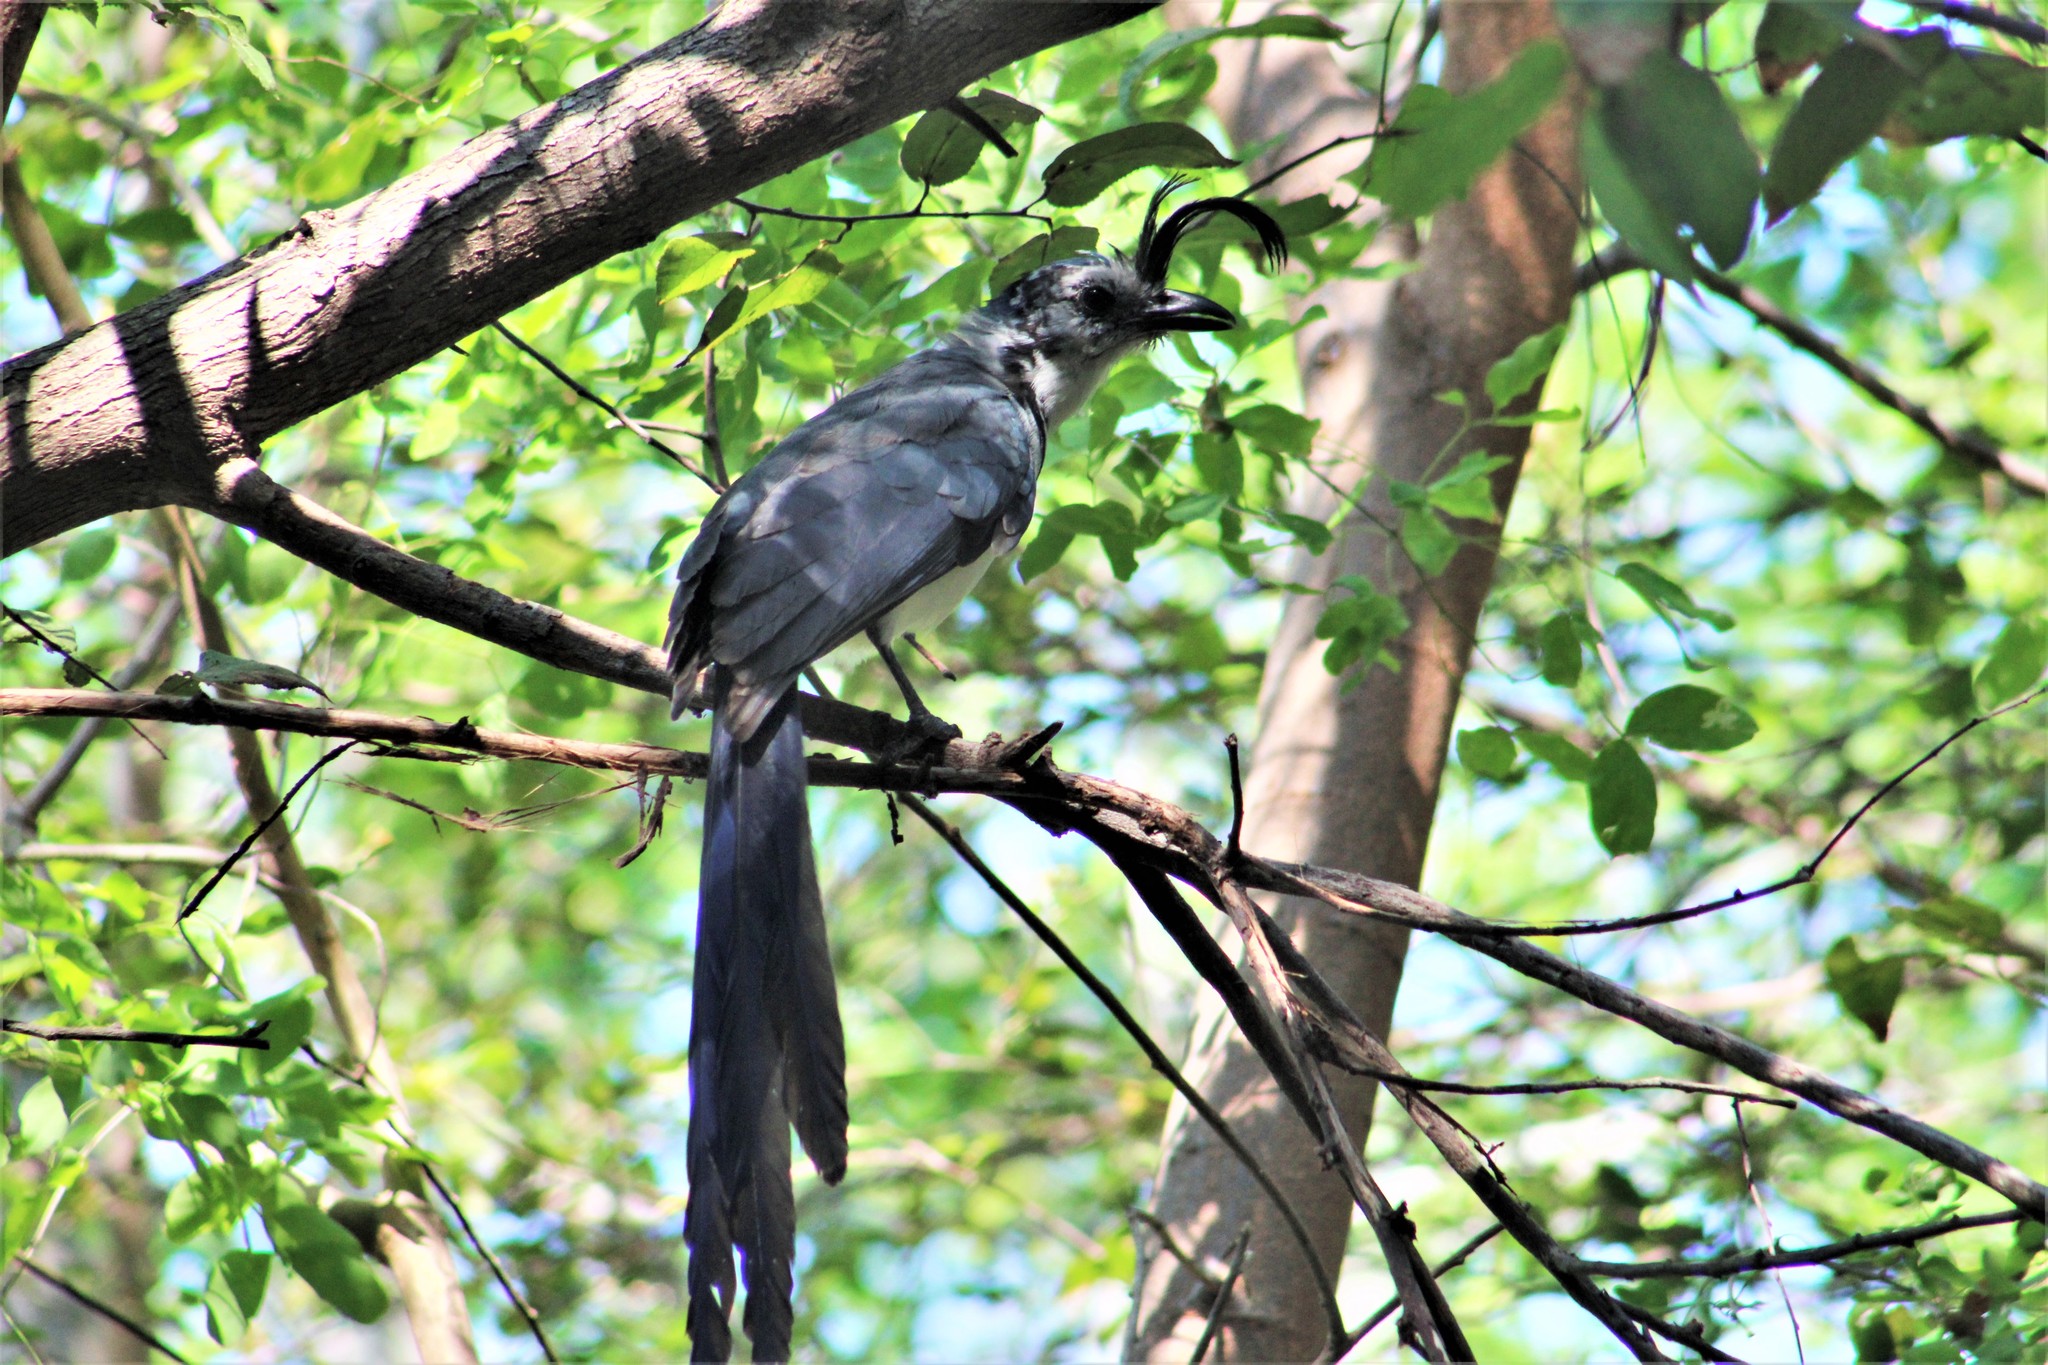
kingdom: Animalia
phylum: Chordata
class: Aves
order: Passeriformes
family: Corvidae
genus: Calocitta
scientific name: Calocitta formosa
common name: White-throated magpie-jay
